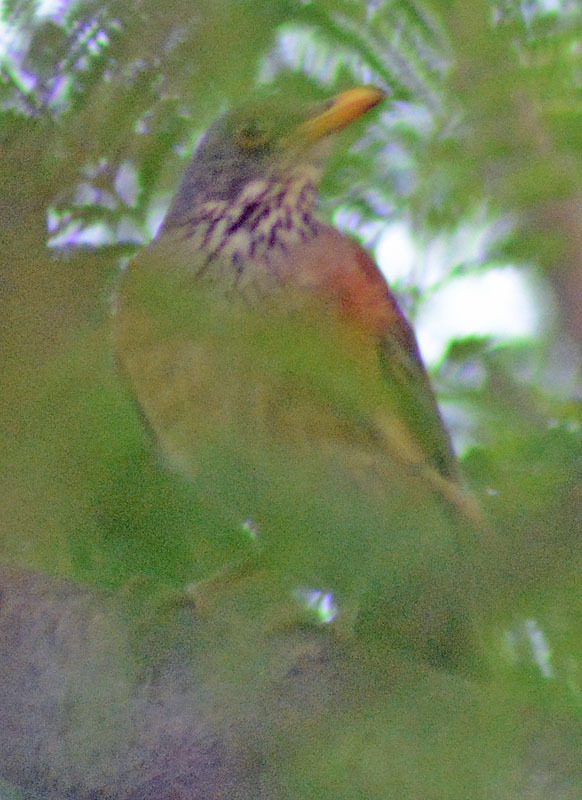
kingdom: Animalia
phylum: Chordata
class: Aves
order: Passeriformes
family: Turdidae
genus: Turdus
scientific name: Turdus rufopalliatus
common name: Rufous-backed robin
